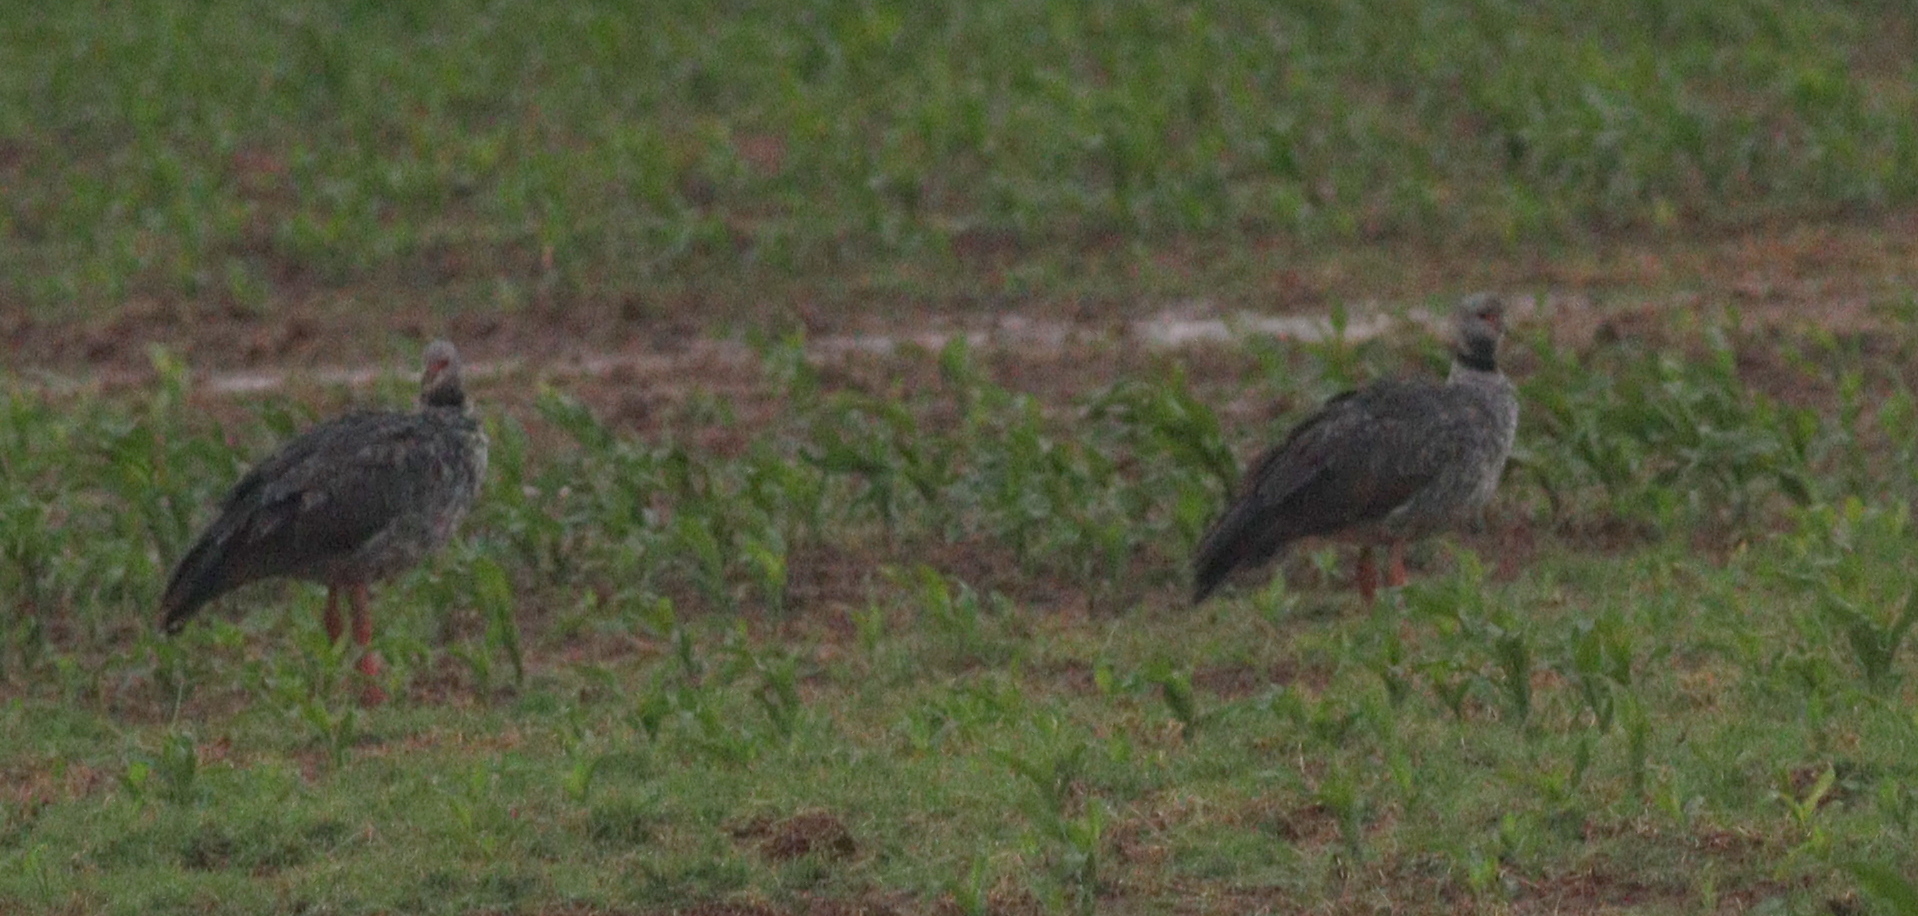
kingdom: Animalia
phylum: Chordata
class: Aves
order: Anseriformes
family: Anhimidae
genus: Chauna
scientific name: Chauna torquata
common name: Southern screamer
